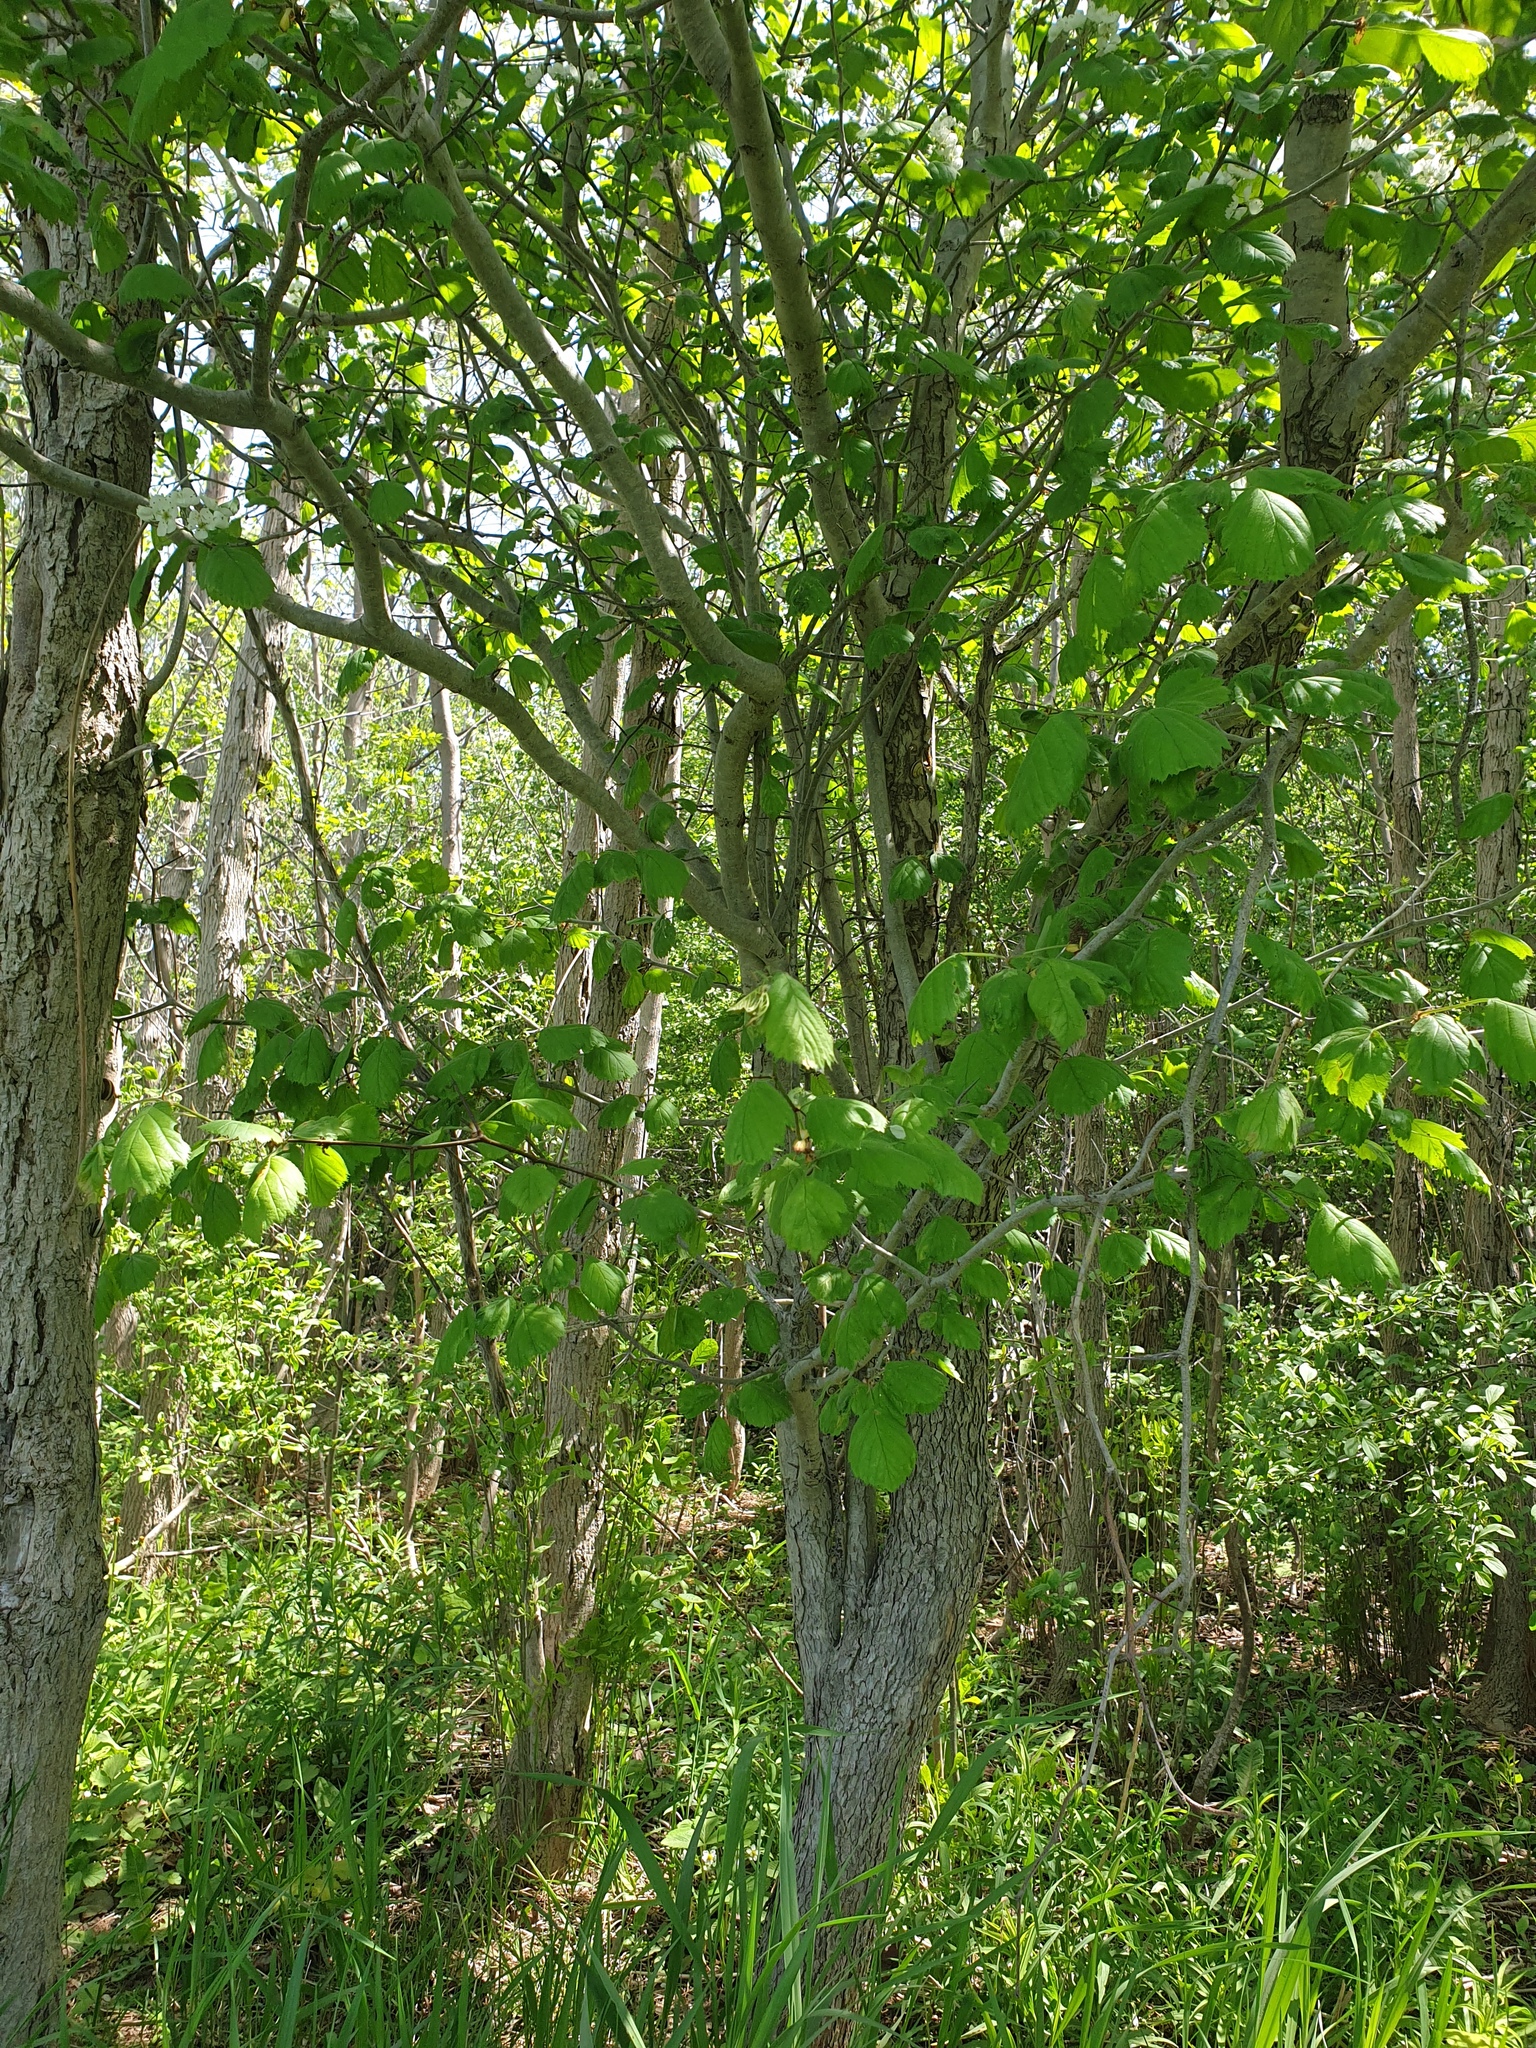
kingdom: Plantae
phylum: Tracheophyta
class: Magnoliopsida
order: Rosales
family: Rosaceae
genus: Crataegus
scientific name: Crataegus coccinea
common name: Scarlet hawthorn
